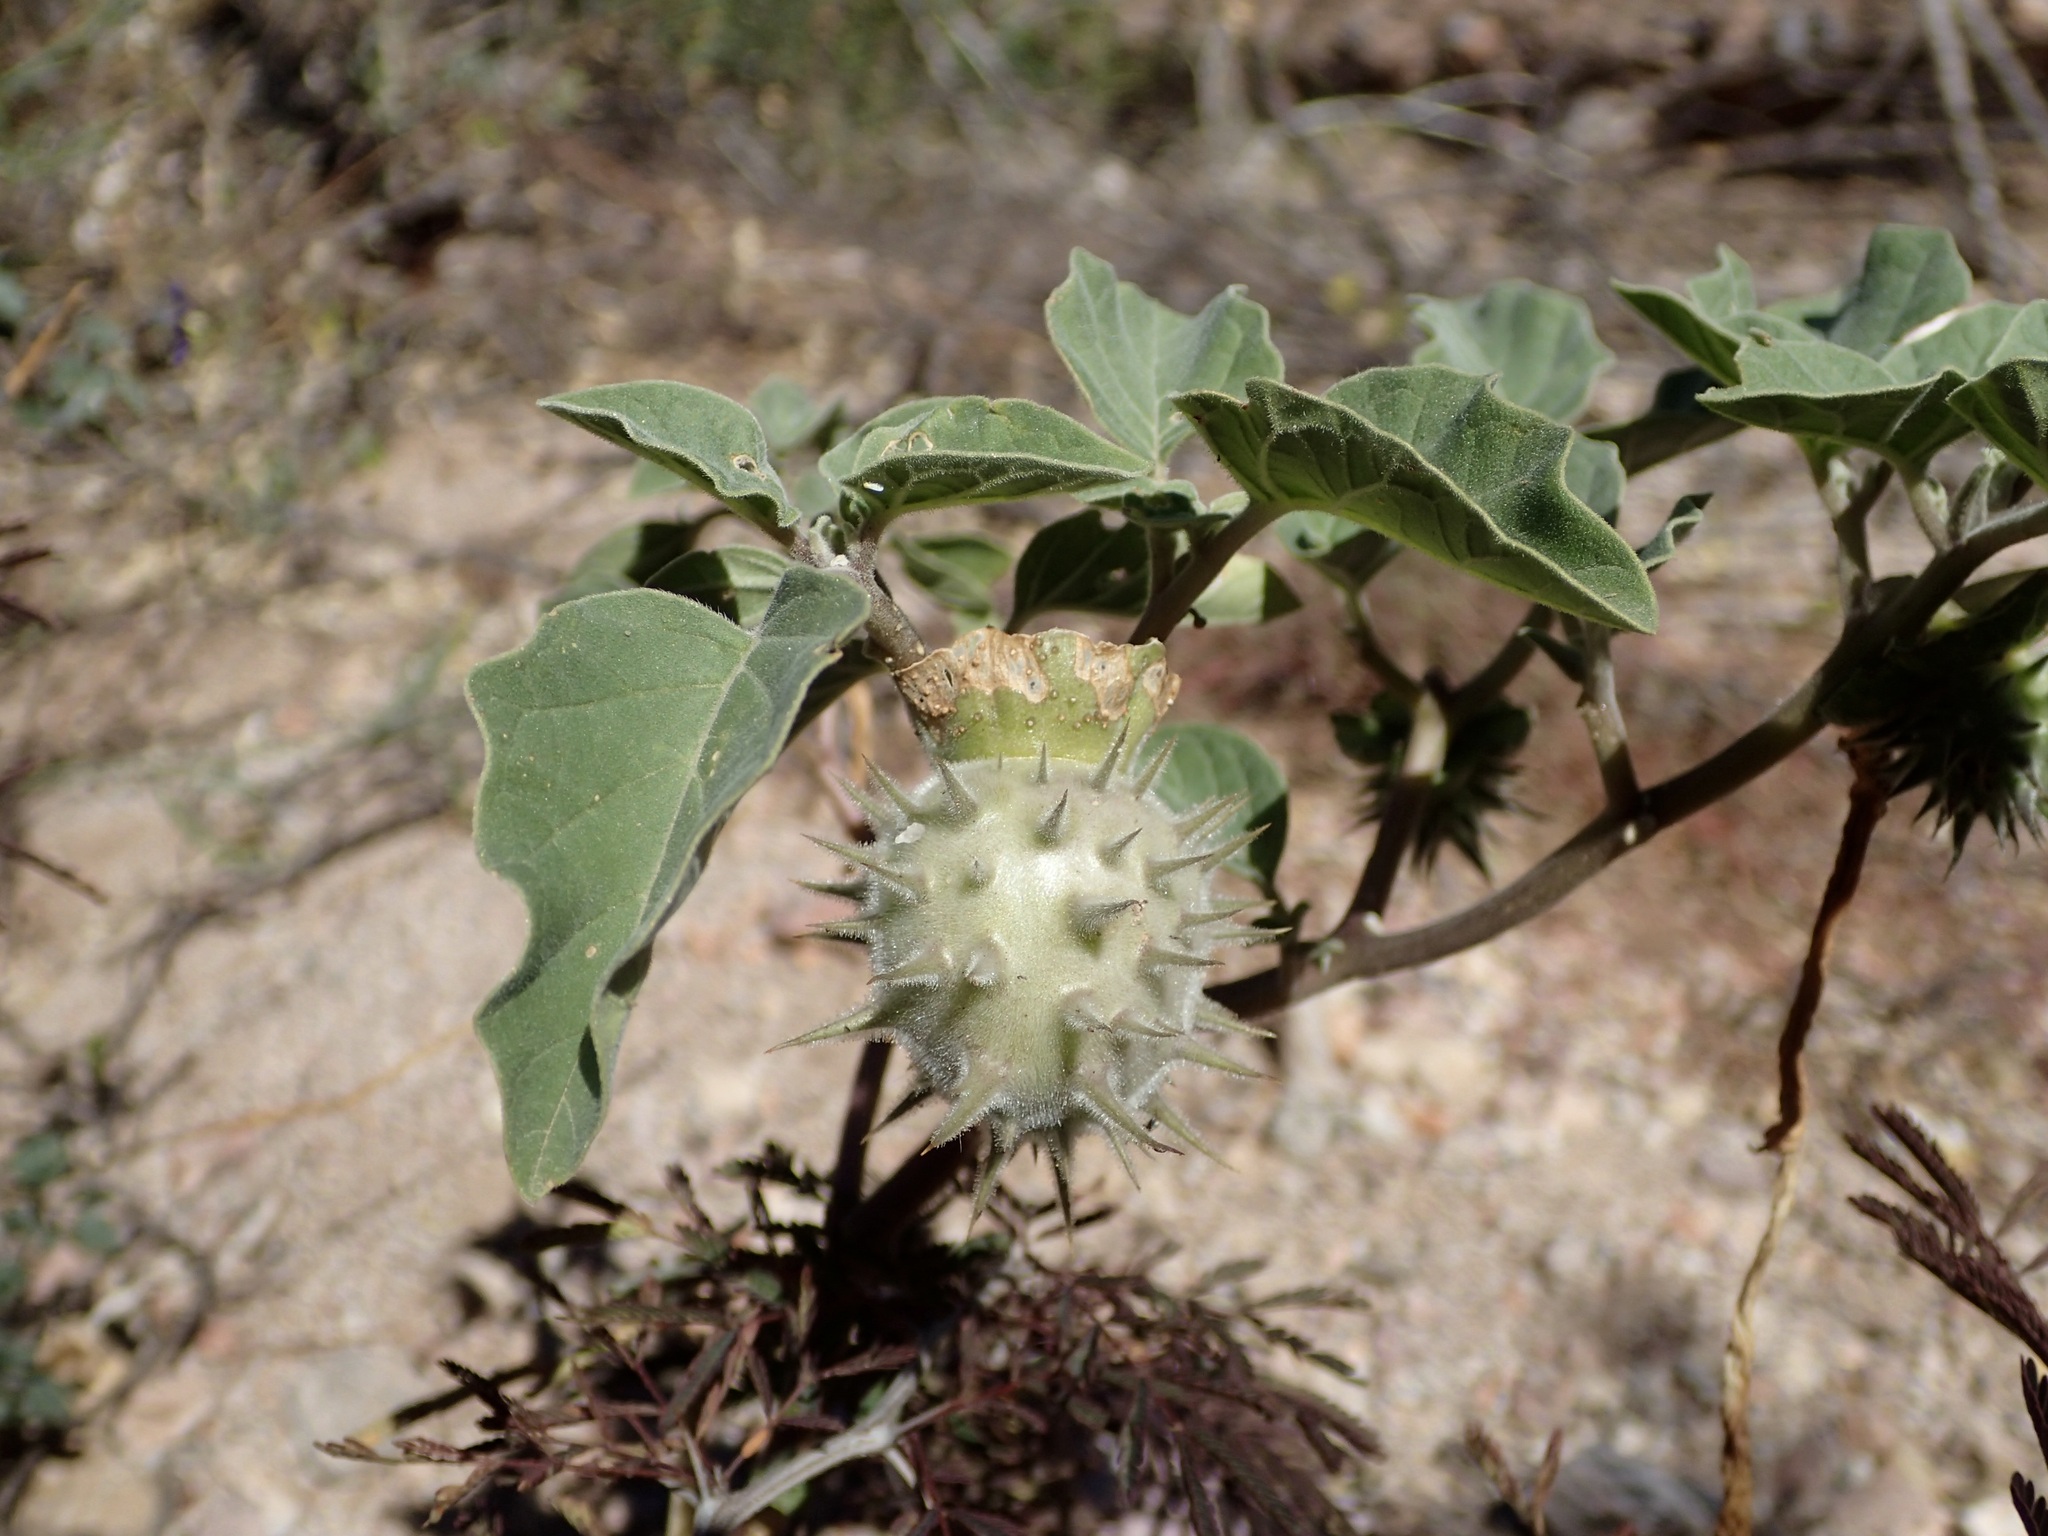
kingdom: Plantae
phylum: Tracheophyta
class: Magnoliopsida
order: Solanales
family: Solanaceae
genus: Datura
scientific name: Datura discolor
